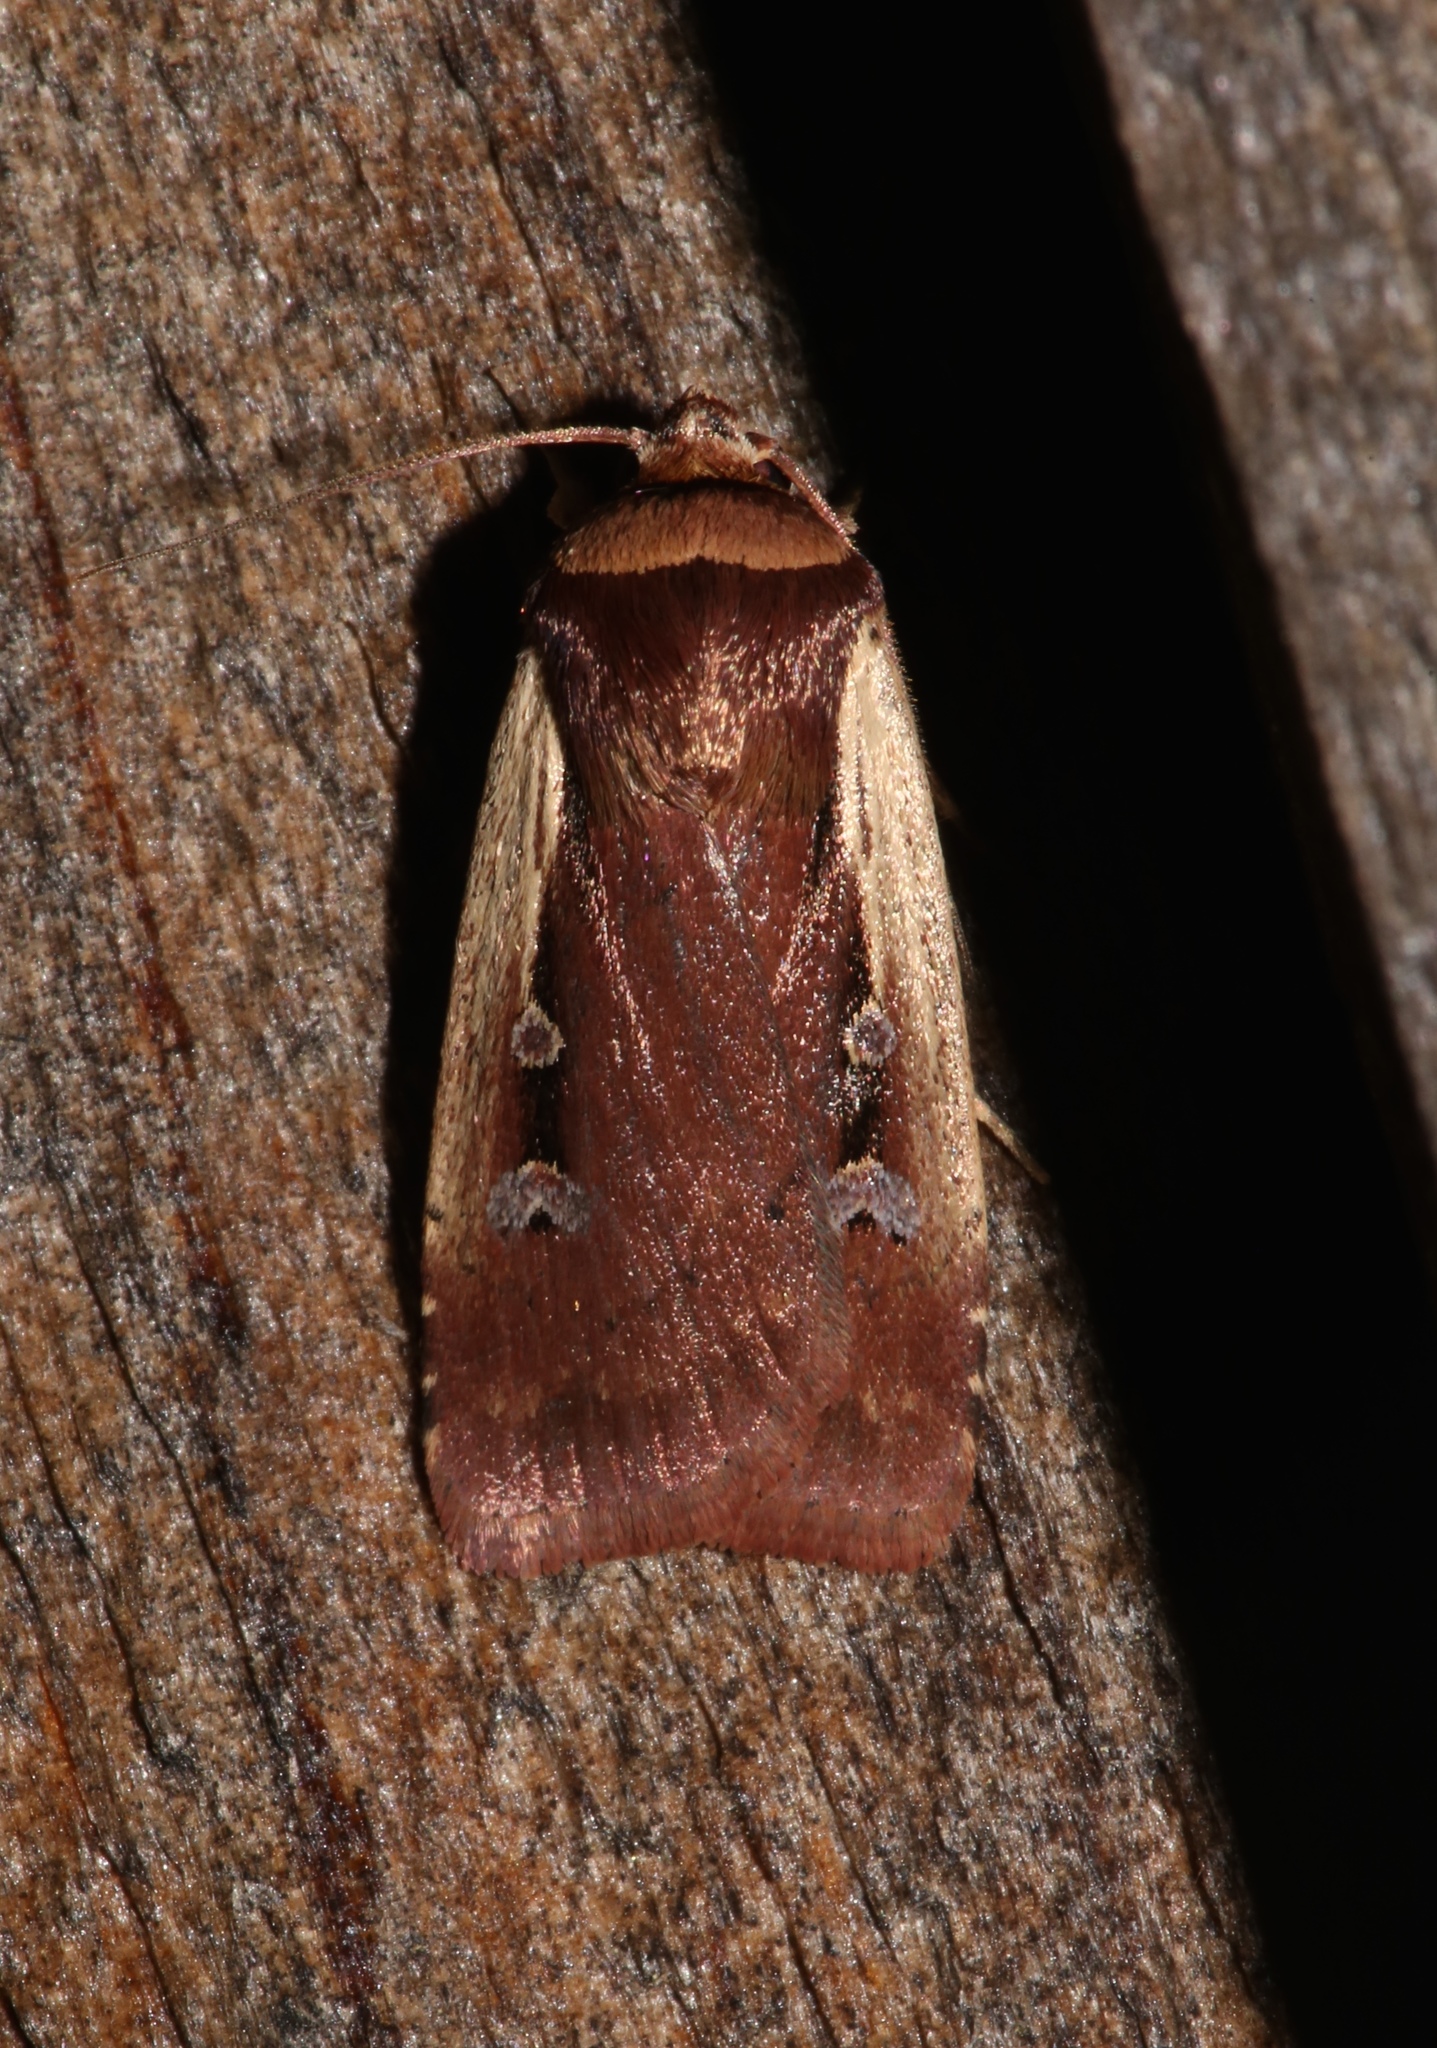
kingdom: Animalia
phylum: Arthropoda
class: Insecta
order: Lepidoptera
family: Noctuidae
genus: Ochropleura
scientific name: Ochropleura implecta
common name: Flame-shouldered dart
